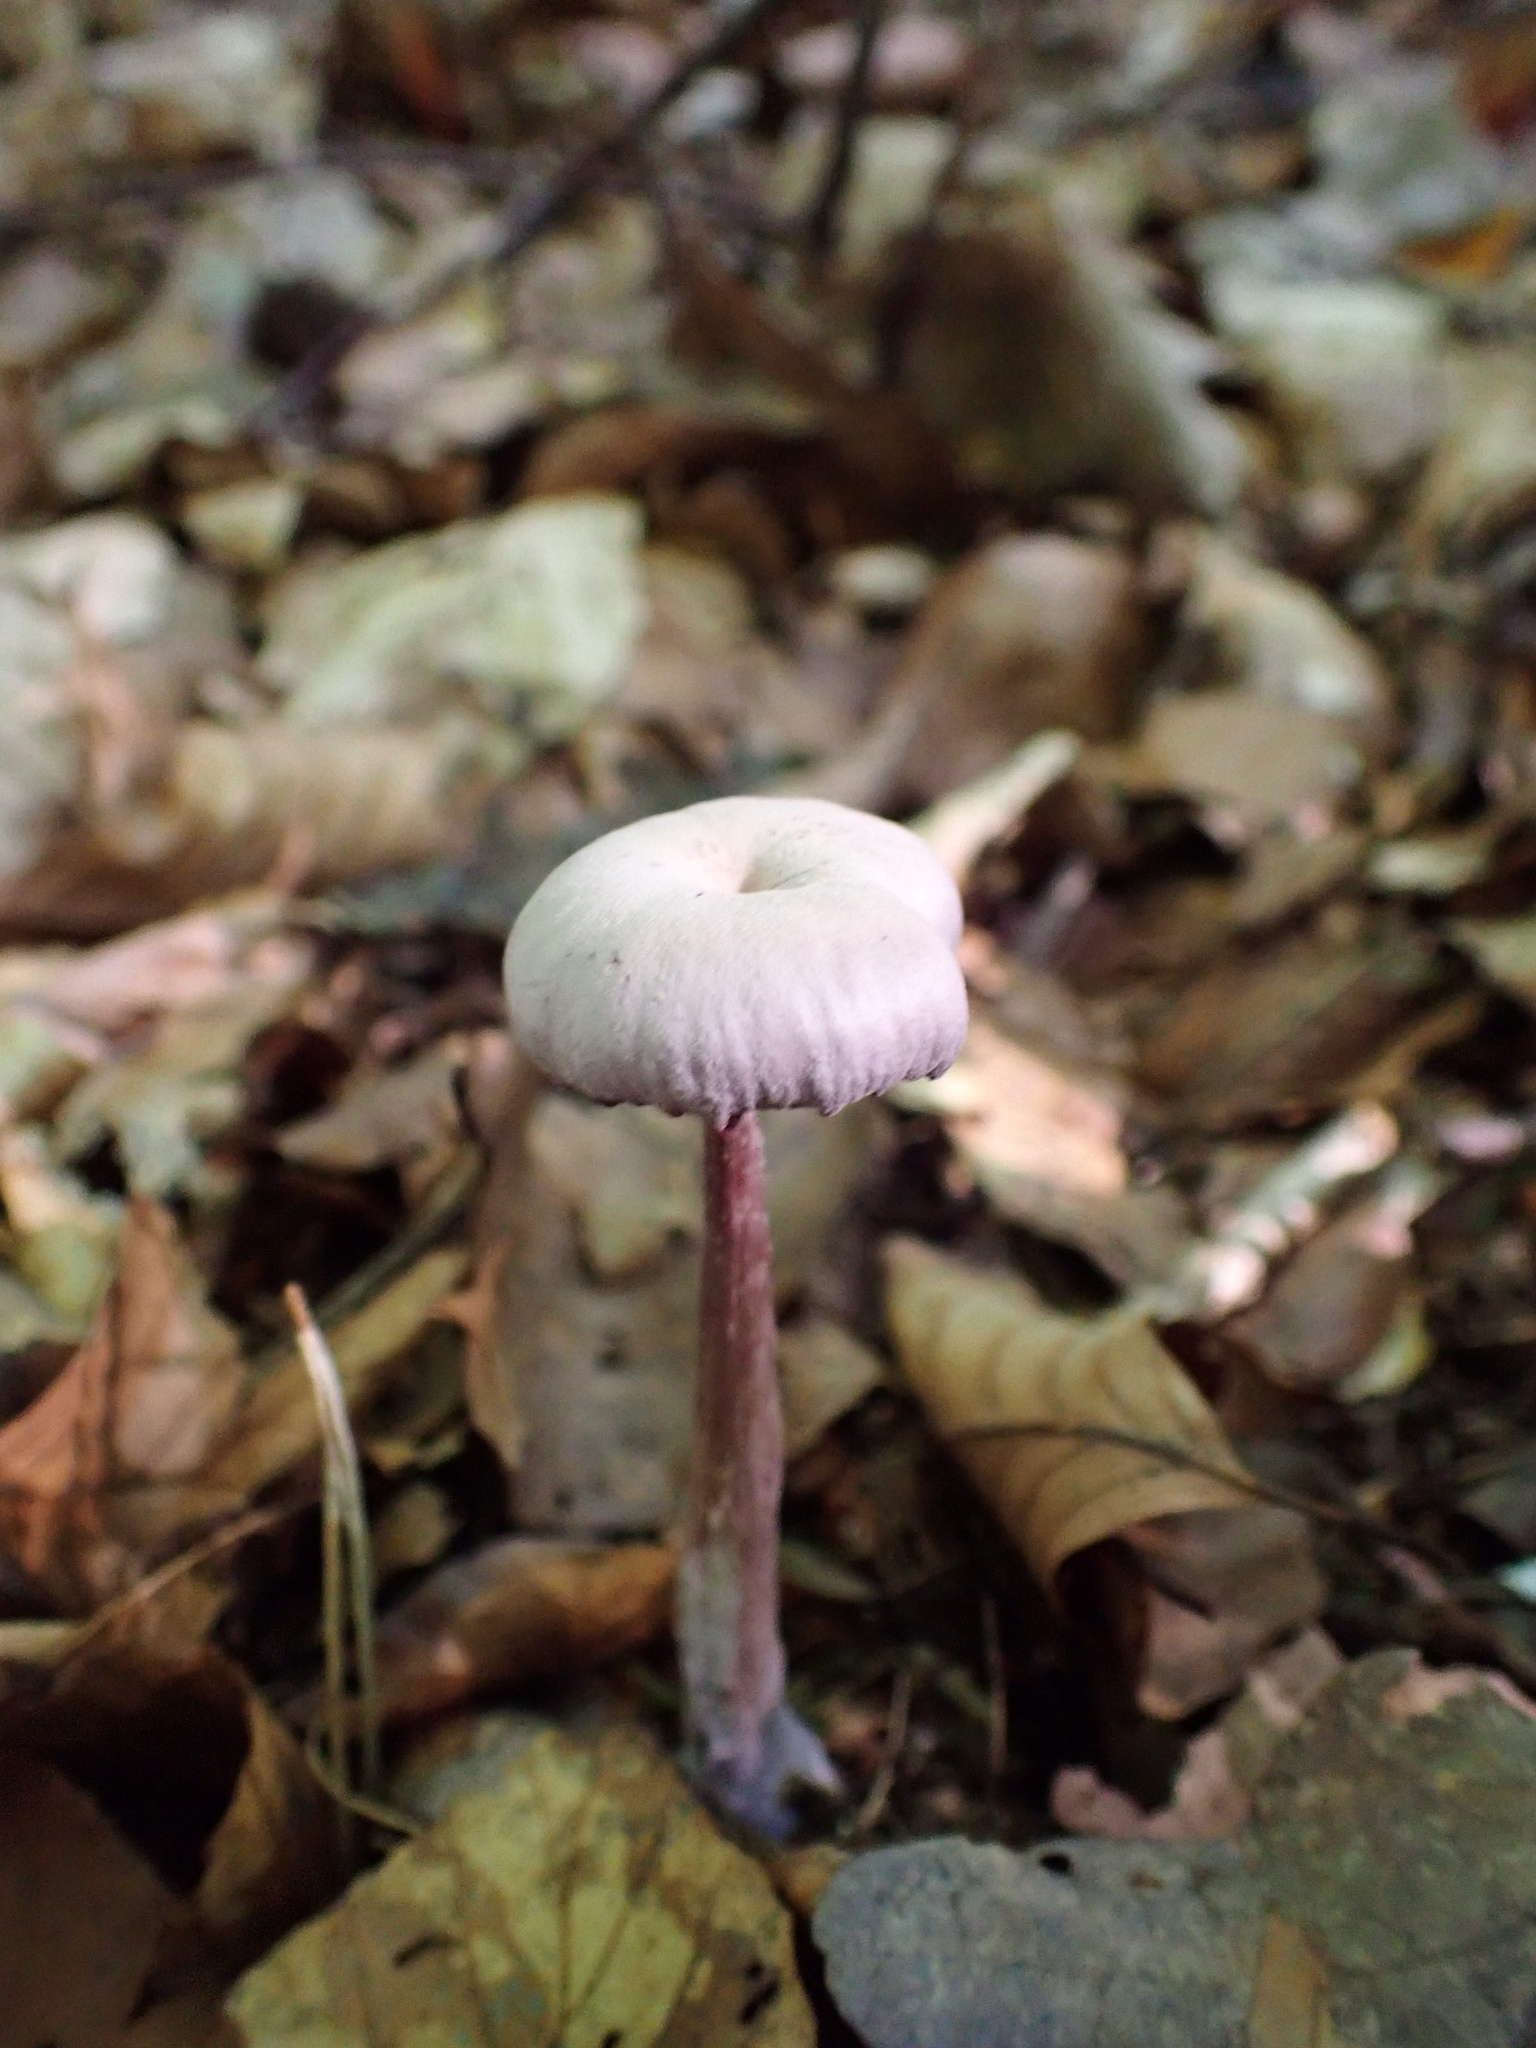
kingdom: Fungi
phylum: Basidiomycota
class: Agaricomycetes
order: Agaricales
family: Hydnangiaceae
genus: Laccaria
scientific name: Laccaria amethystina
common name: Amethyst deceiver
